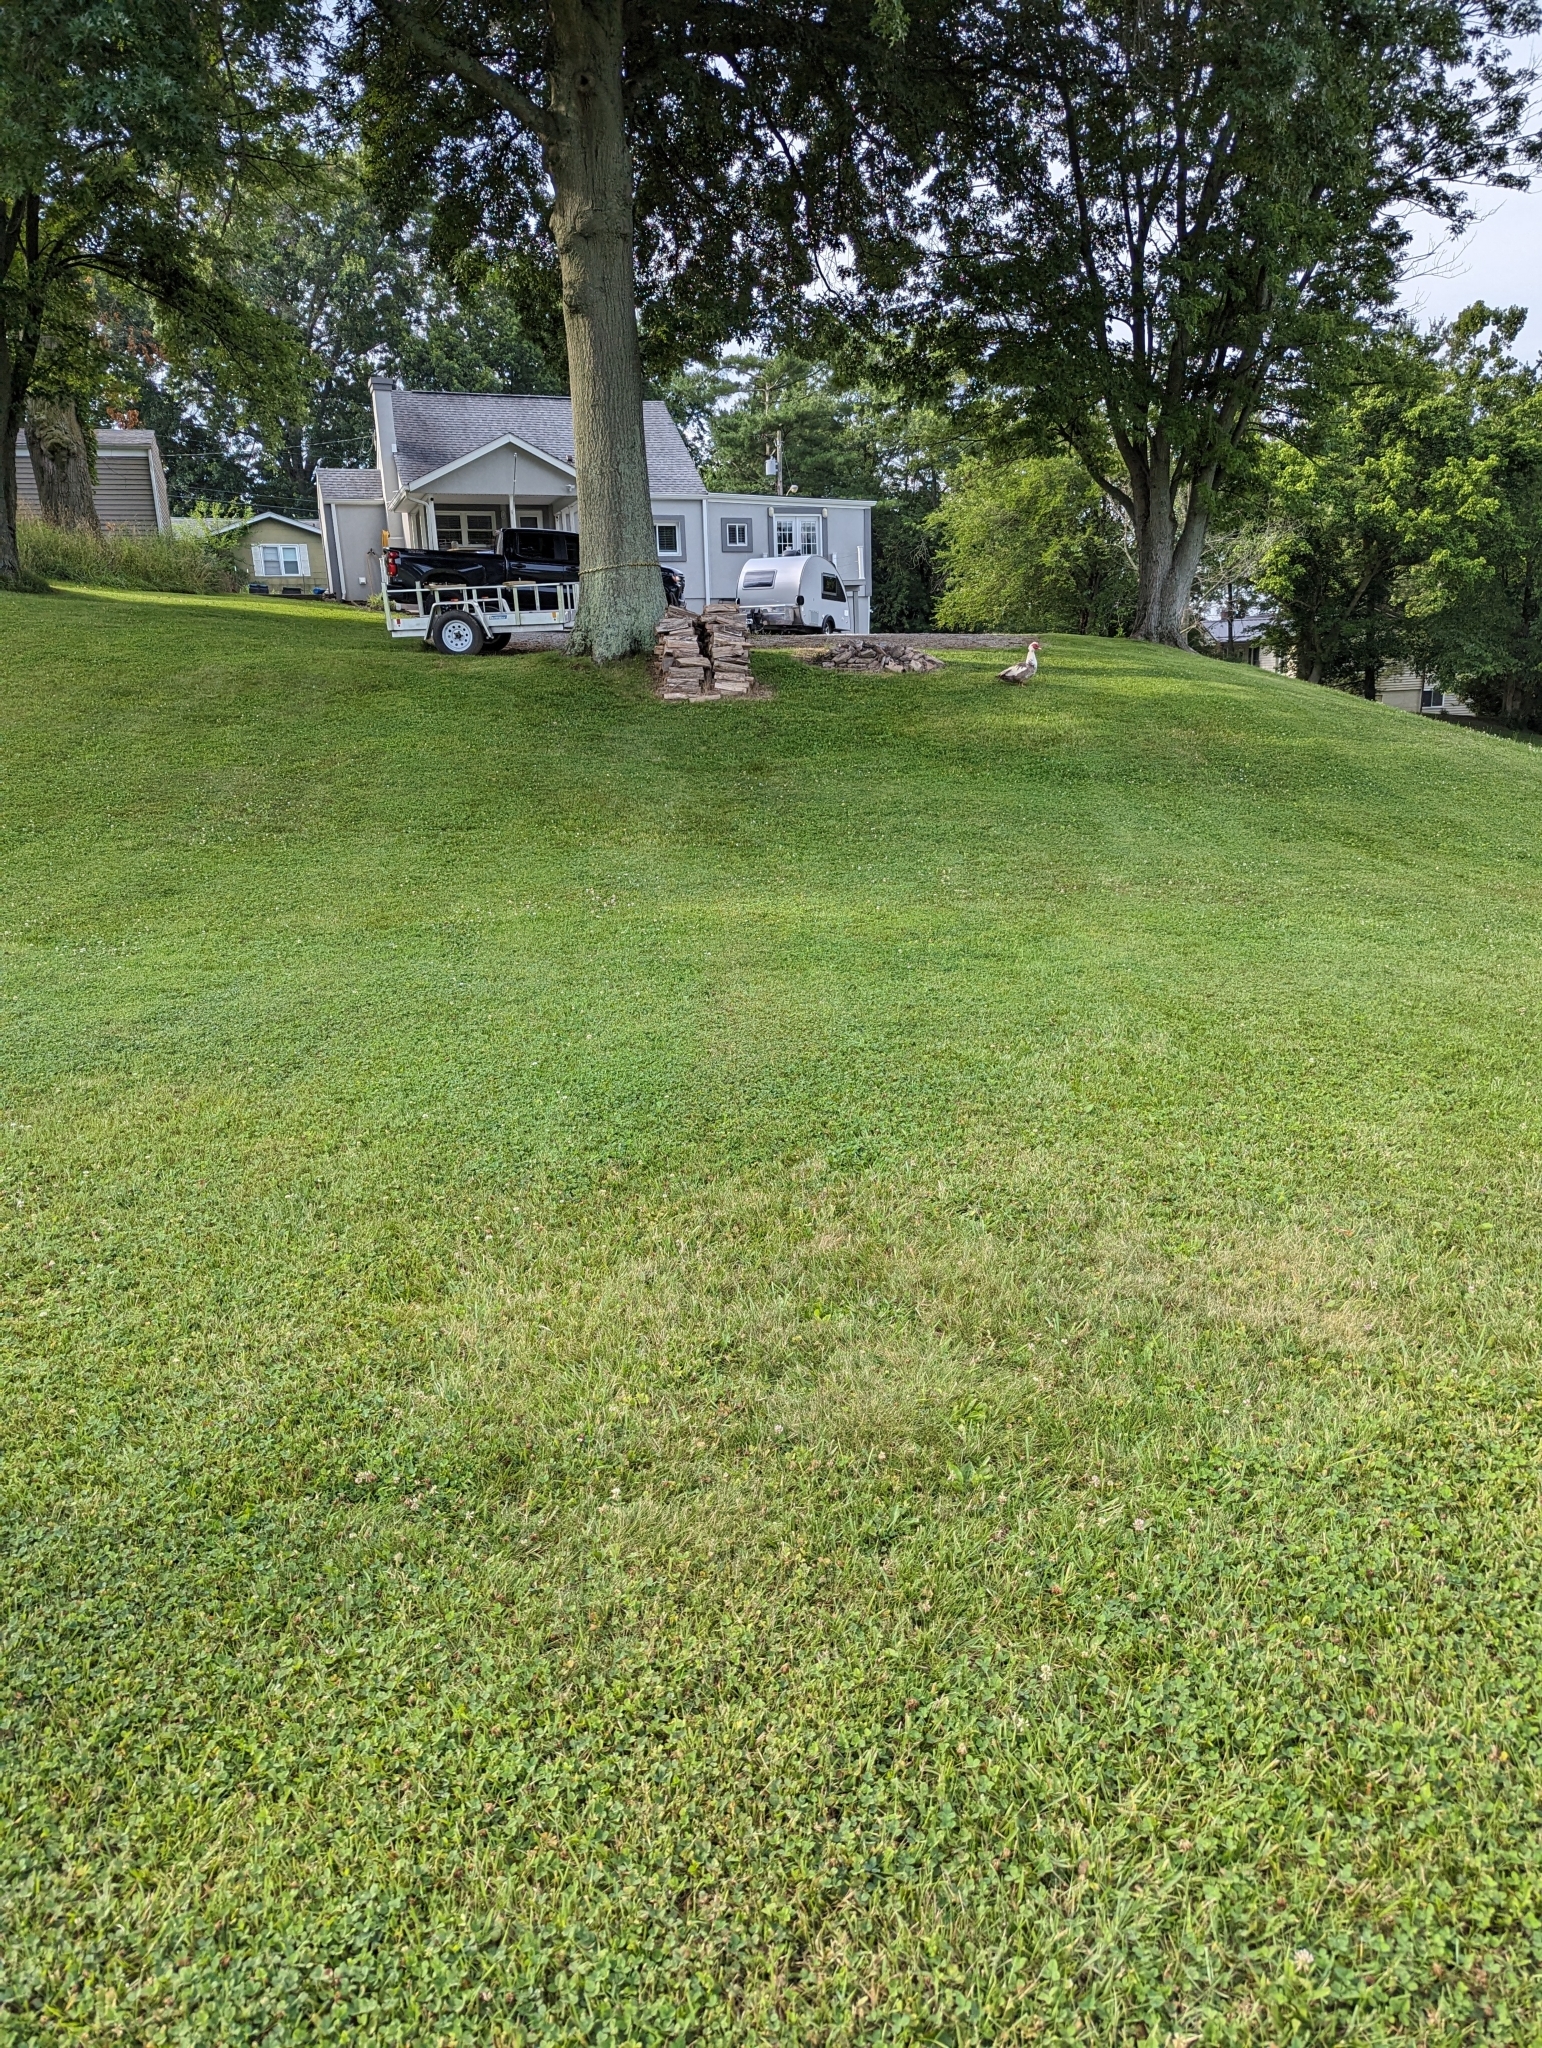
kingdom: Animalia
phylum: Chordata
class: Aves
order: Anseriformes
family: Anatidae
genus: Cairina
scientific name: Cairina moschata
